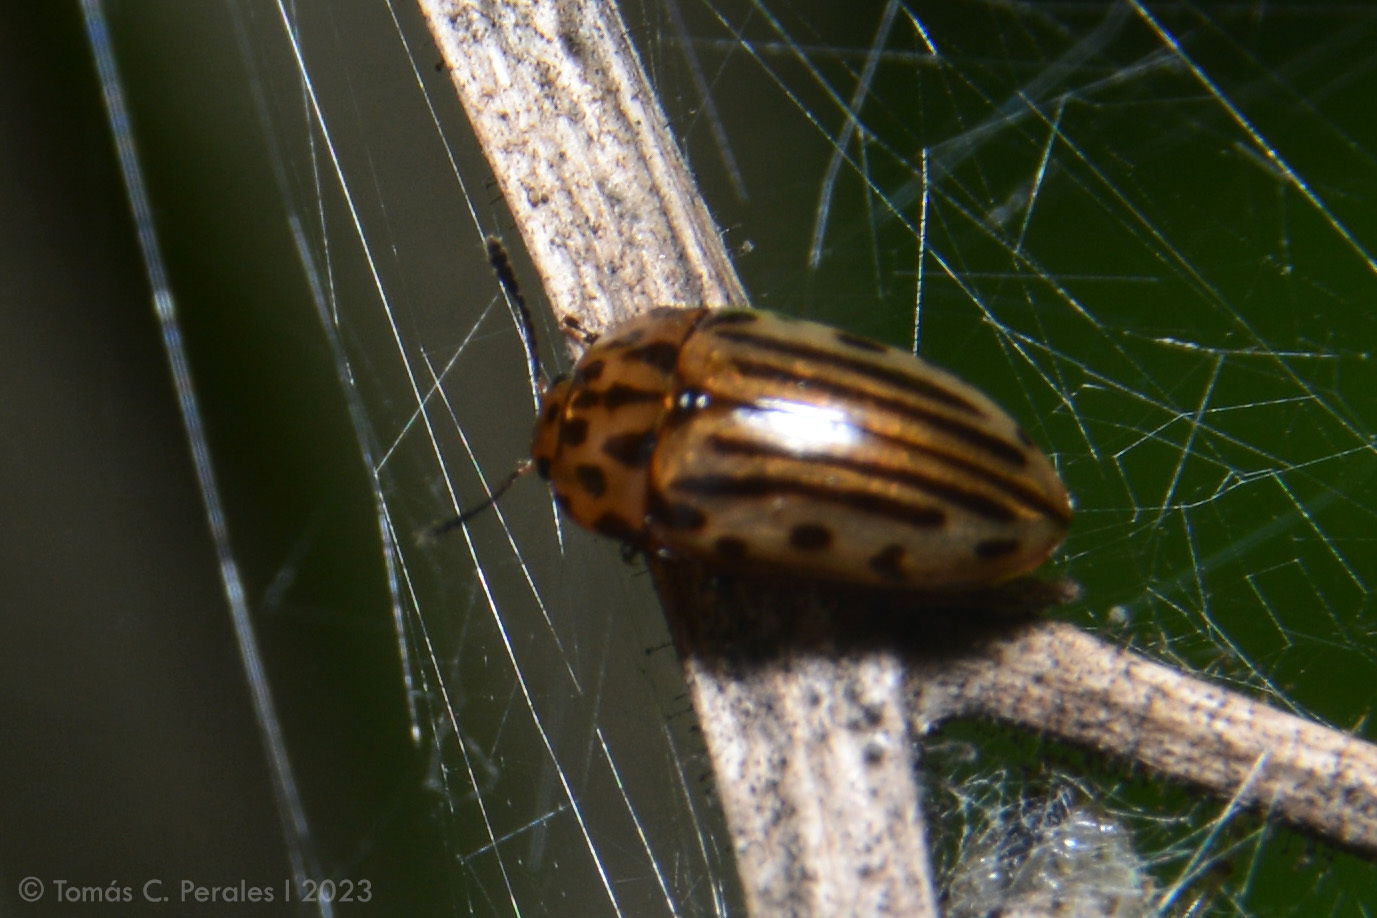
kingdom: Animalia
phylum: Arthropoda
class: Insecta
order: Coleoptera
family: Erotylidae
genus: Mycotretus
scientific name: Mycotretus
